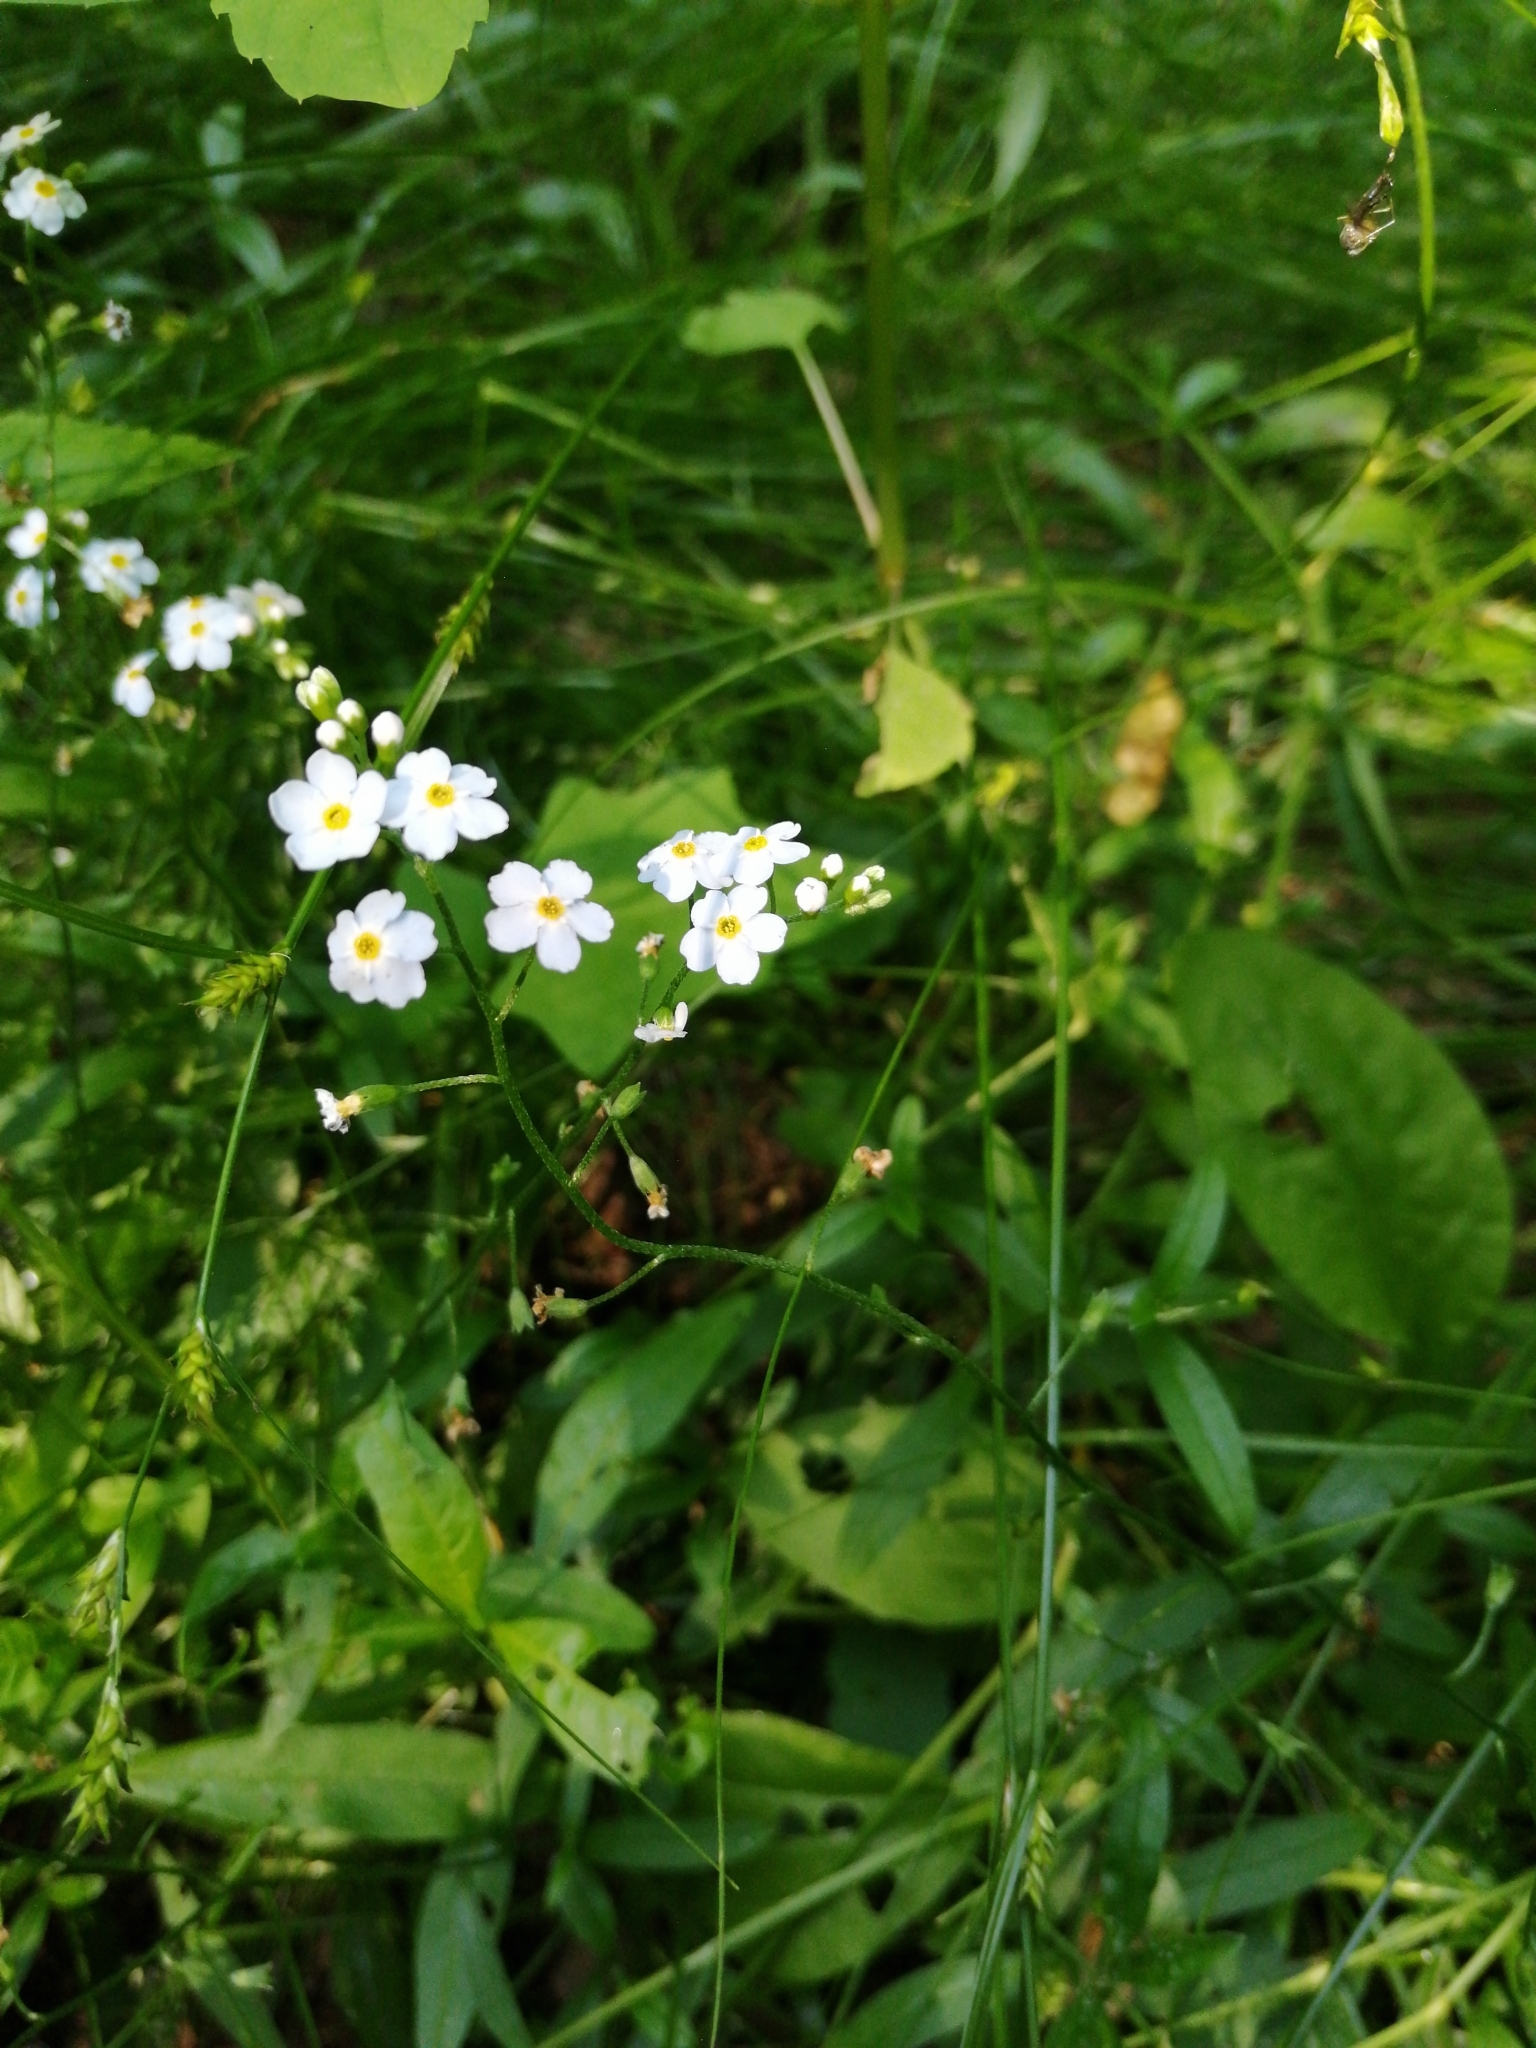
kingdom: Plantae
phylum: Tracheophyta
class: Magnoliopsida
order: Boraginales
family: Boraginaceae
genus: Myosotis
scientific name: Myosotis scorpioides
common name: Water forget-me-not
